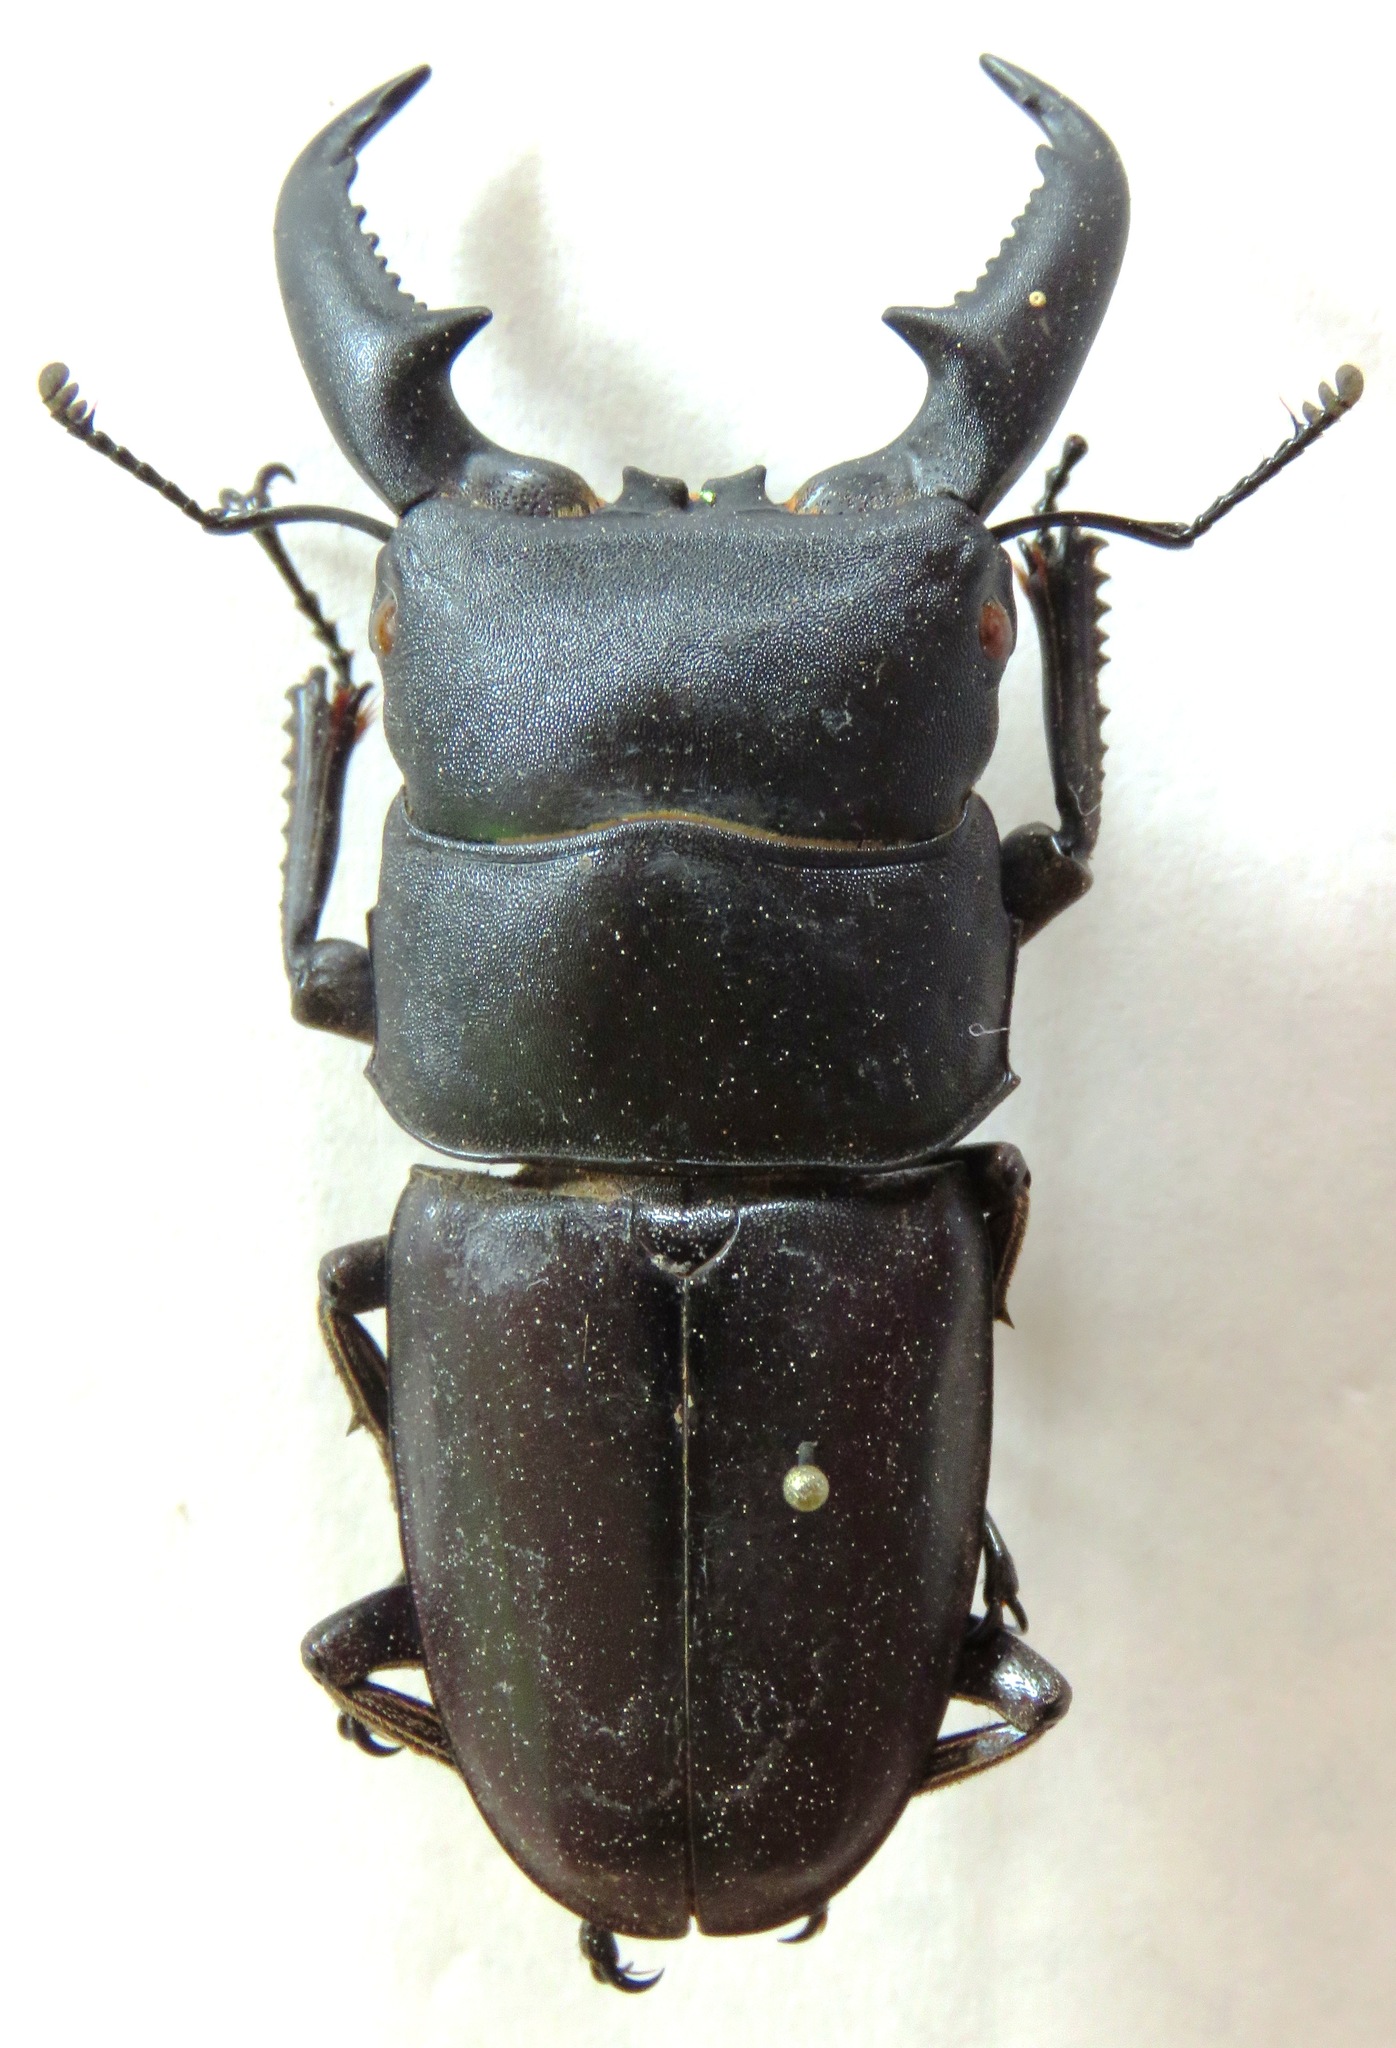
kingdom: Animalia
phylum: Arthropoda
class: Insecta
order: Coleoptera
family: Lucanidae
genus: Serrognathus
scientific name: Serrognathus titanus
